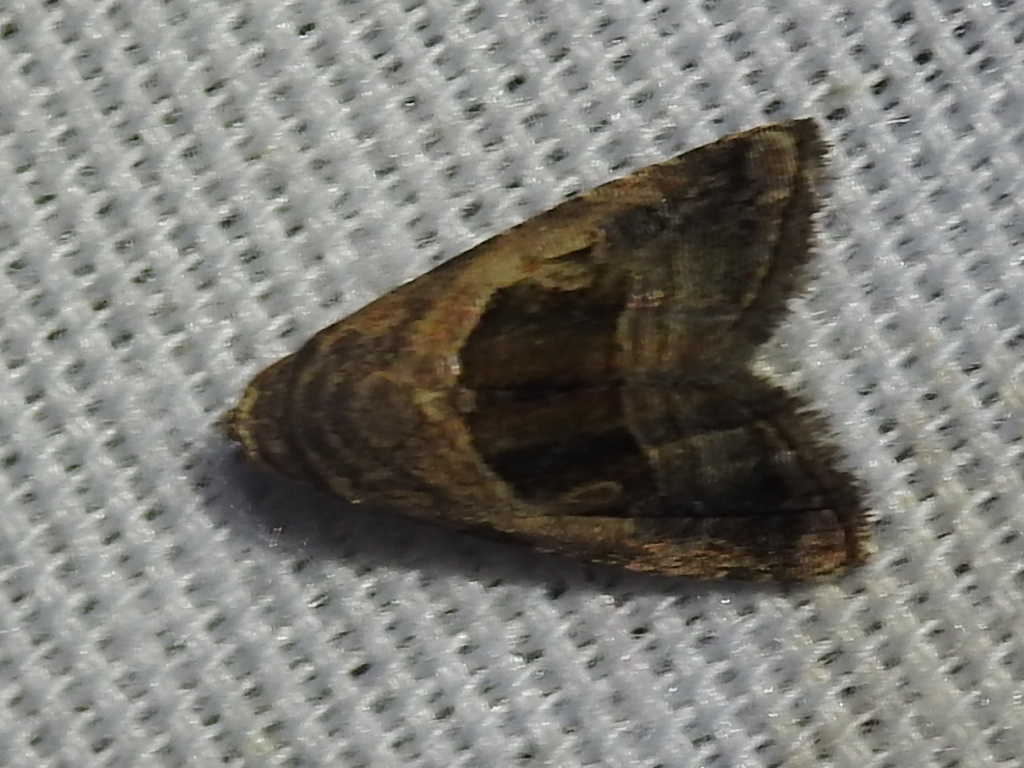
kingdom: Animalia
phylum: Arthropoda
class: Insecta
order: Lepidoptera
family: Noctuidae
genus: Tripudia
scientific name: Tripudia quadrifera
